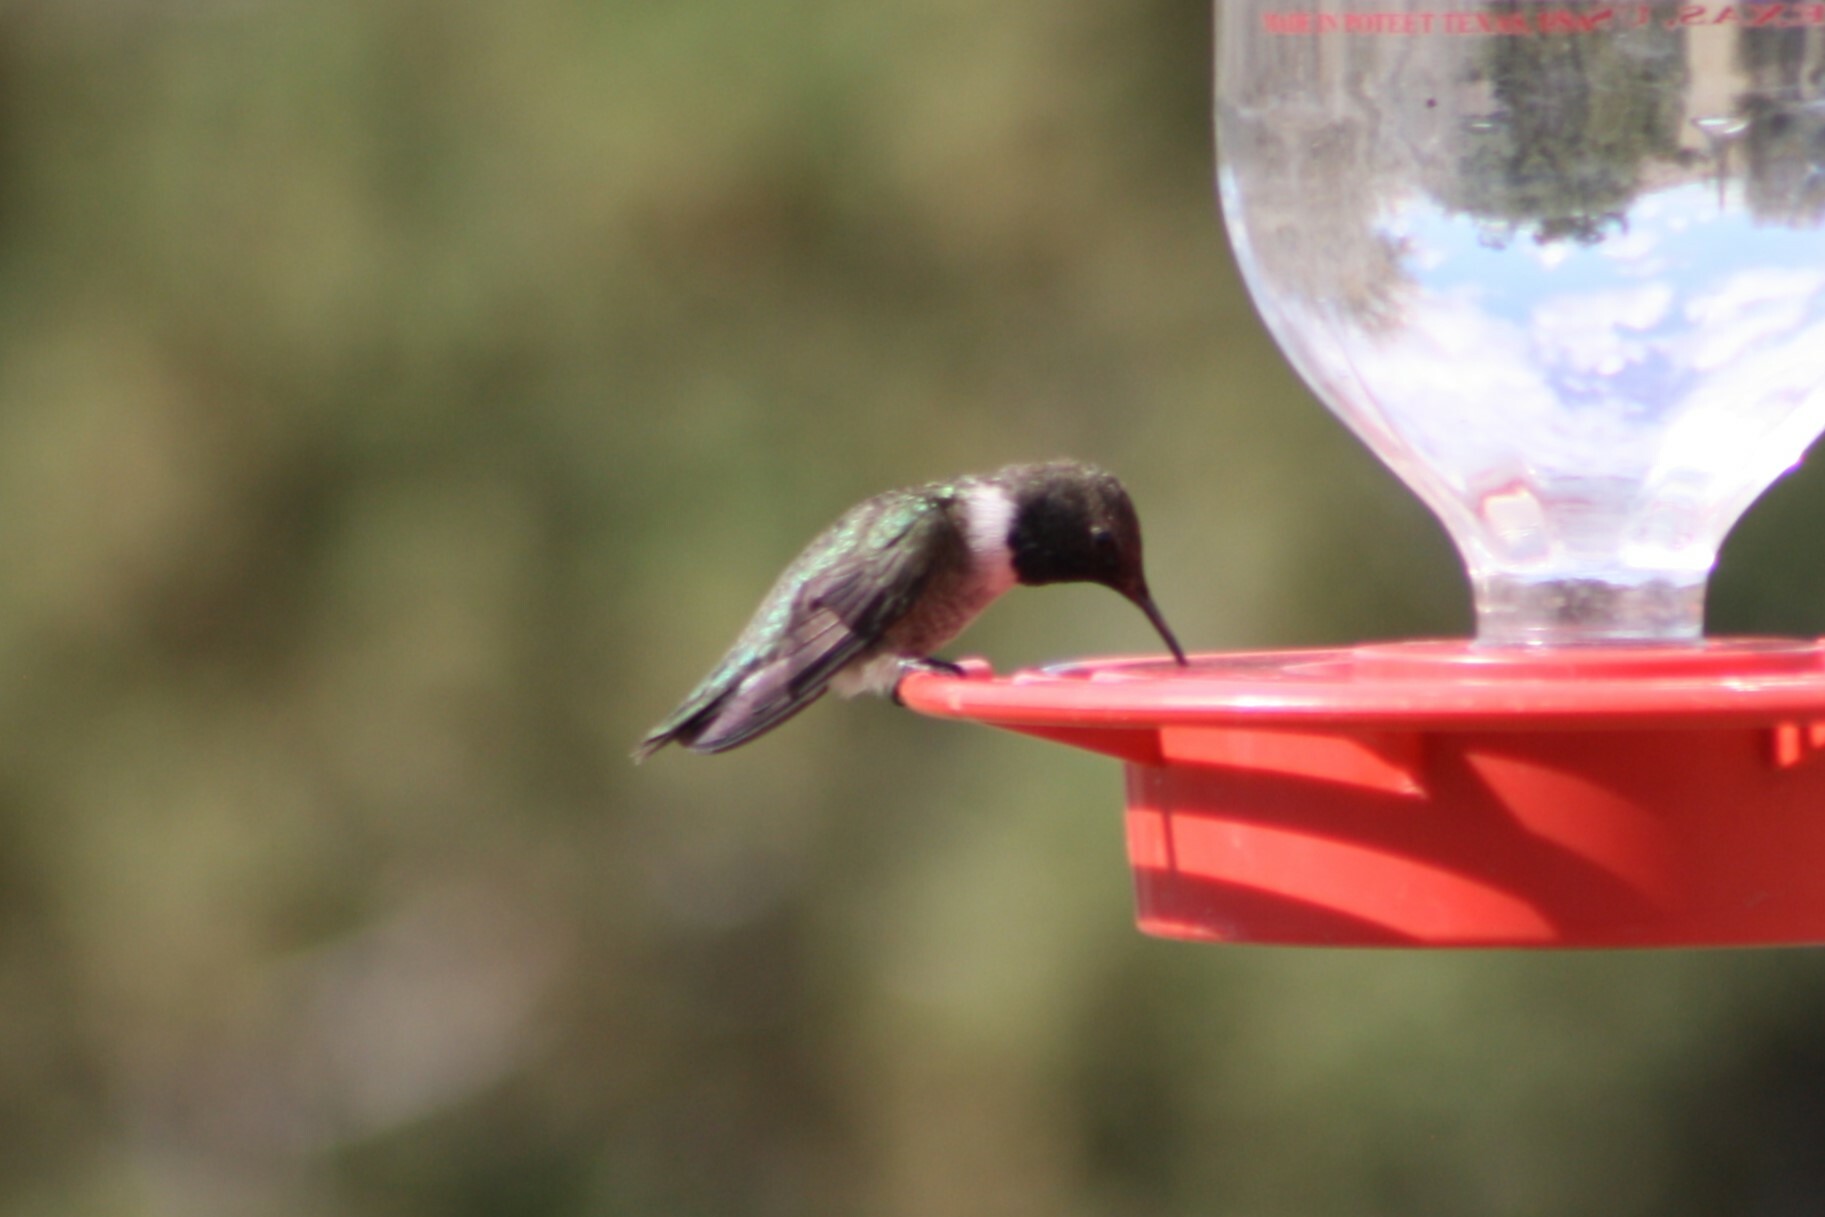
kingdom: Animalia
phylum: Chordata
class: Aves
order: Apodiformes
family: Trochilidae
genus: Archilochus
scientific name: Archilochus alexandri
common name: Black-chinned hummingbird
